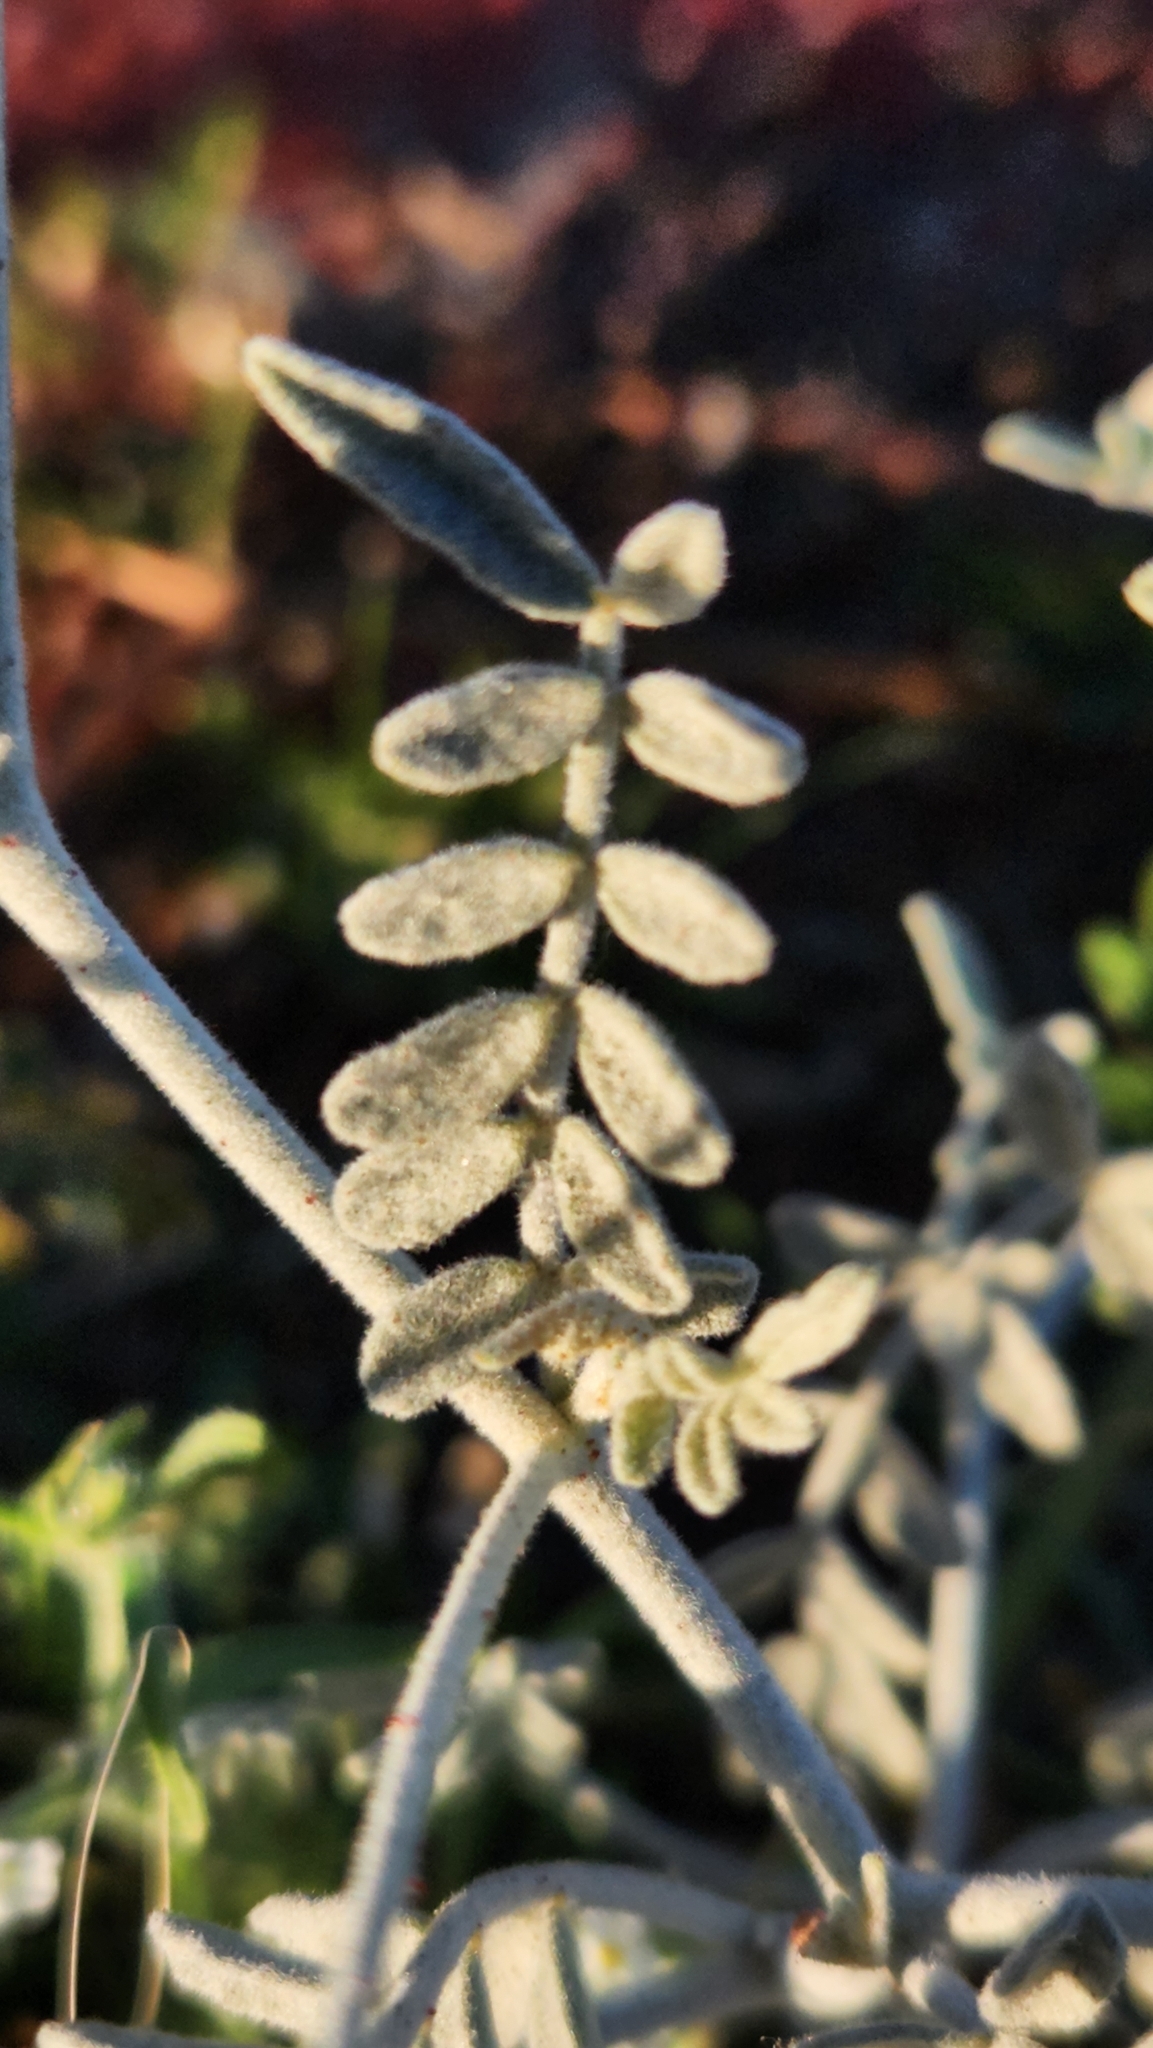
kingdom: Plantae
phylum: Tracheophyta
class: Magnoliopsida
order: Fabales
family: Fabaceae
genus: Psorothamnus
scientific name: Psorothamnus emoryi
